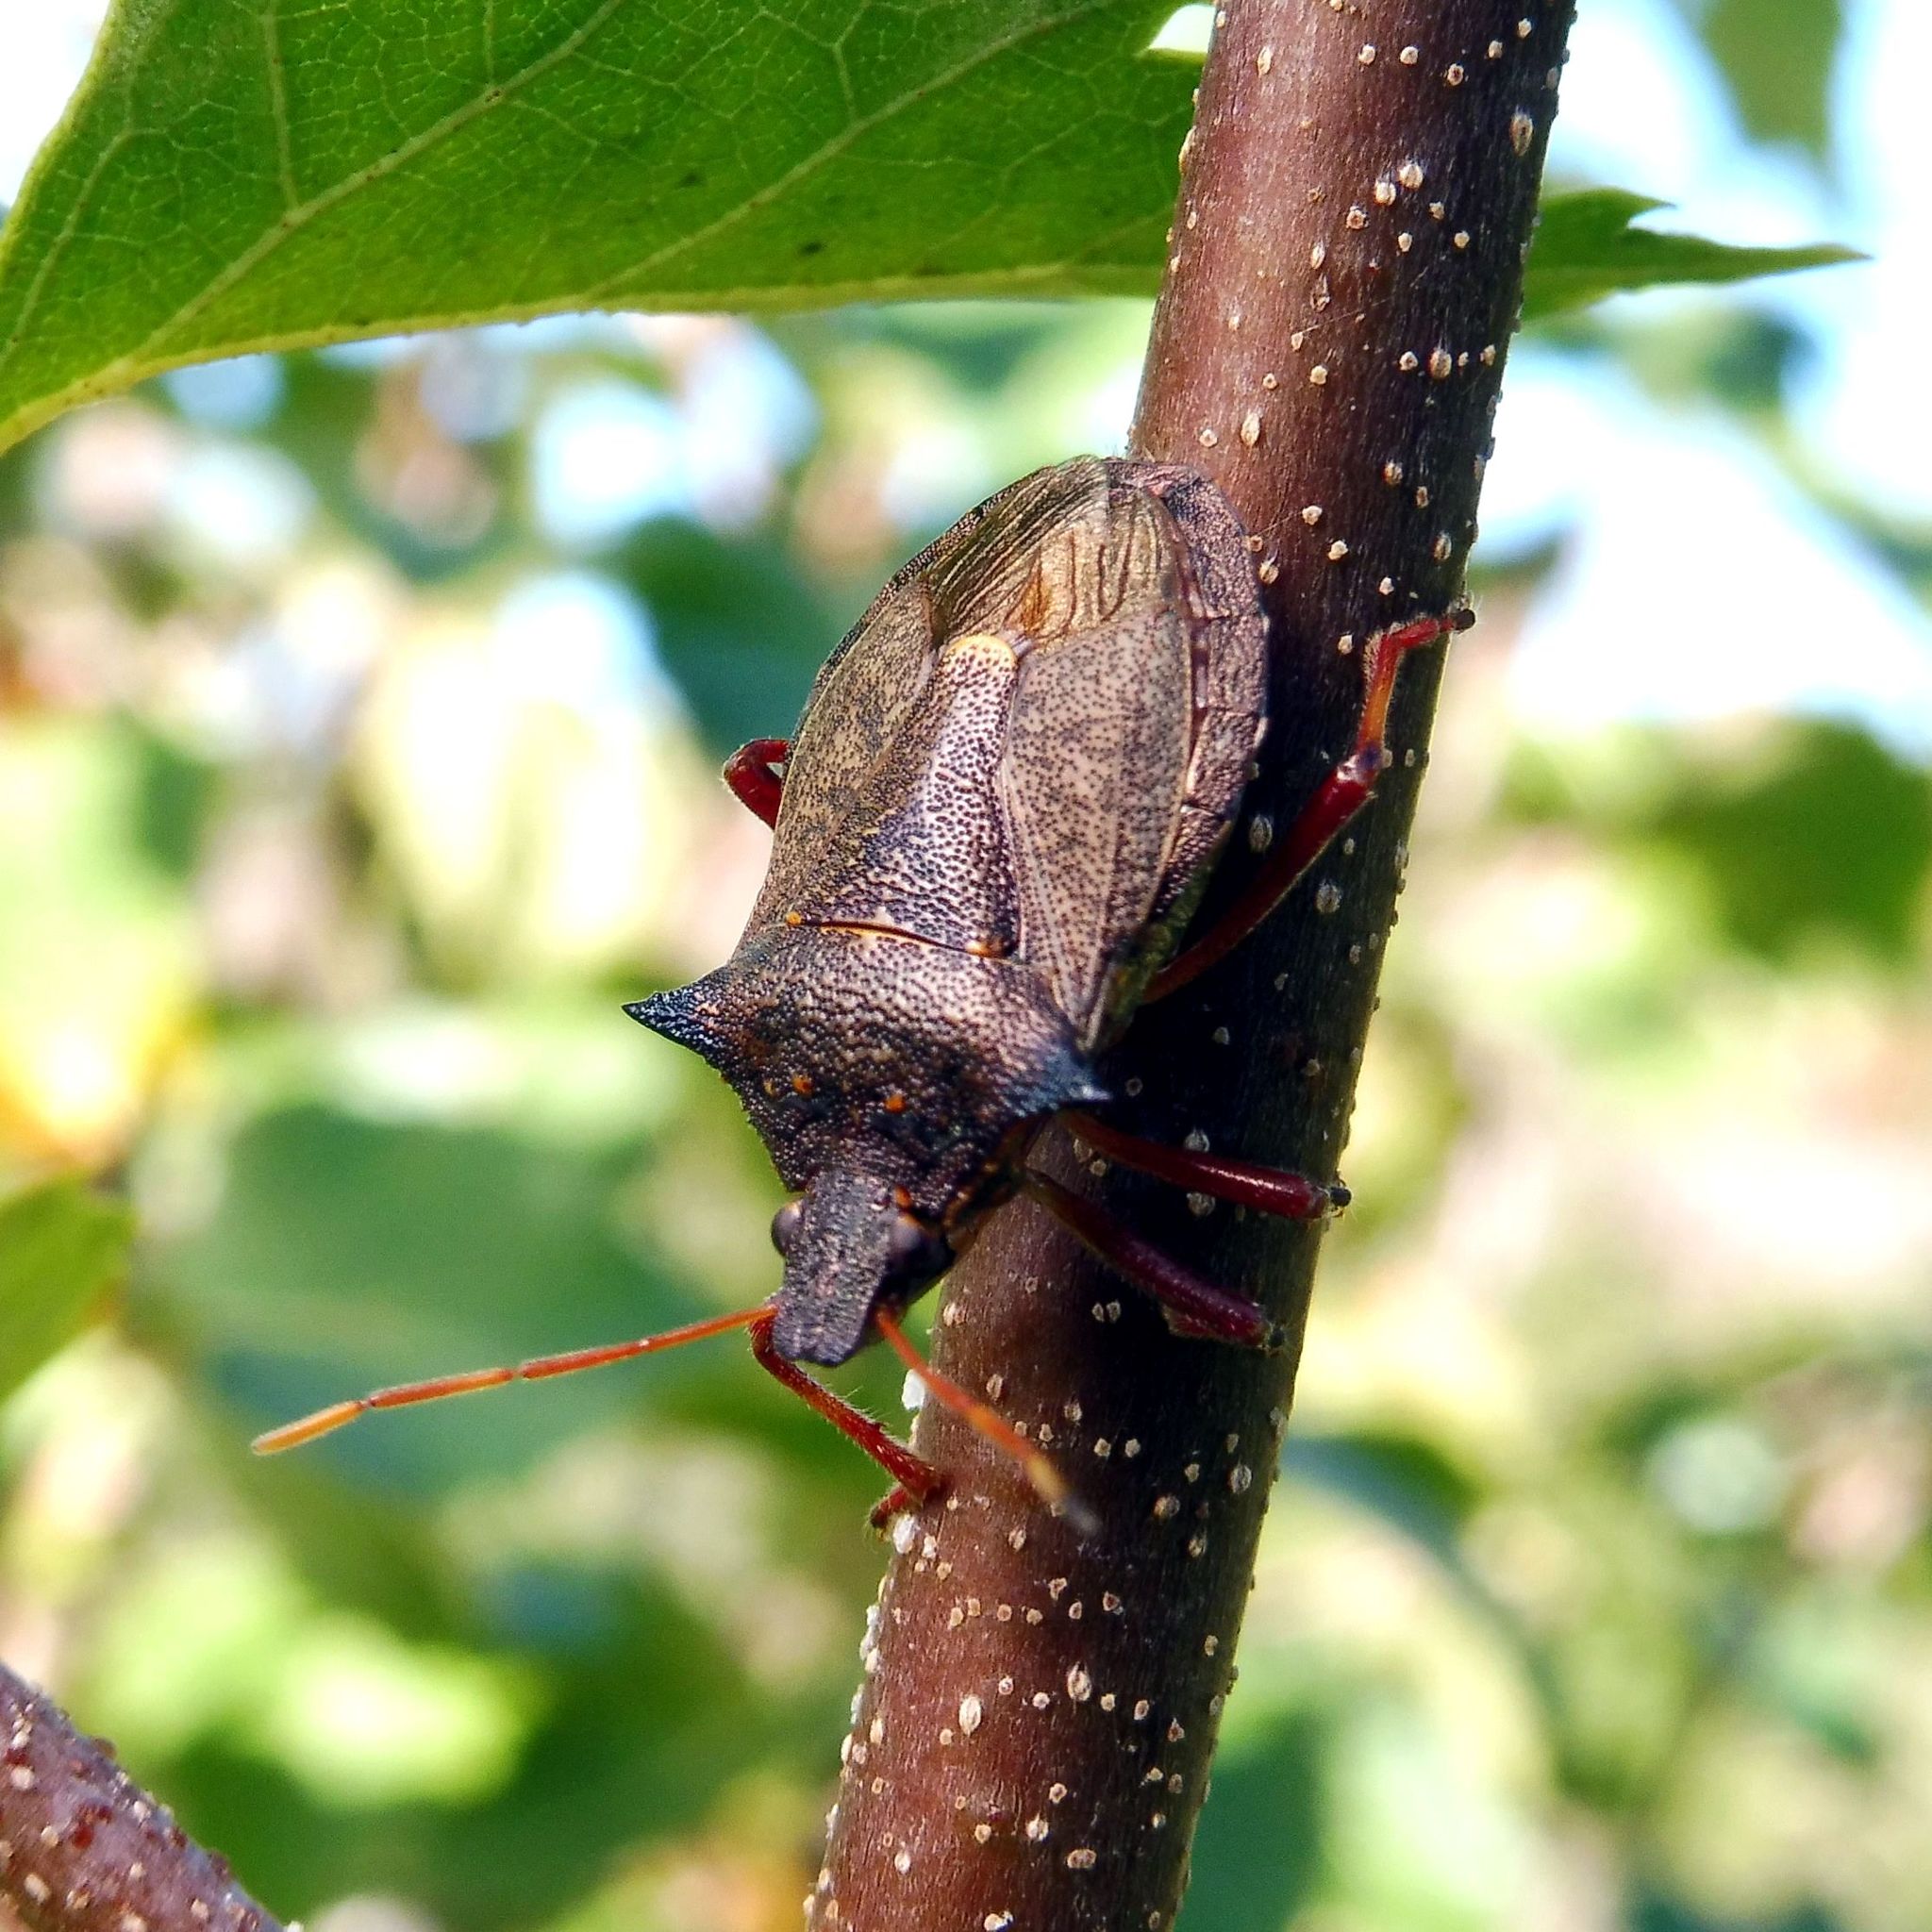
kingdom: Animalia
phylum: Arthropoda
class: Insecta
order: Hemiptera
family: Pentatomidae
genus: Picromerus
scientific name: Picromerus bidens
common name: Spiked shieldbug
